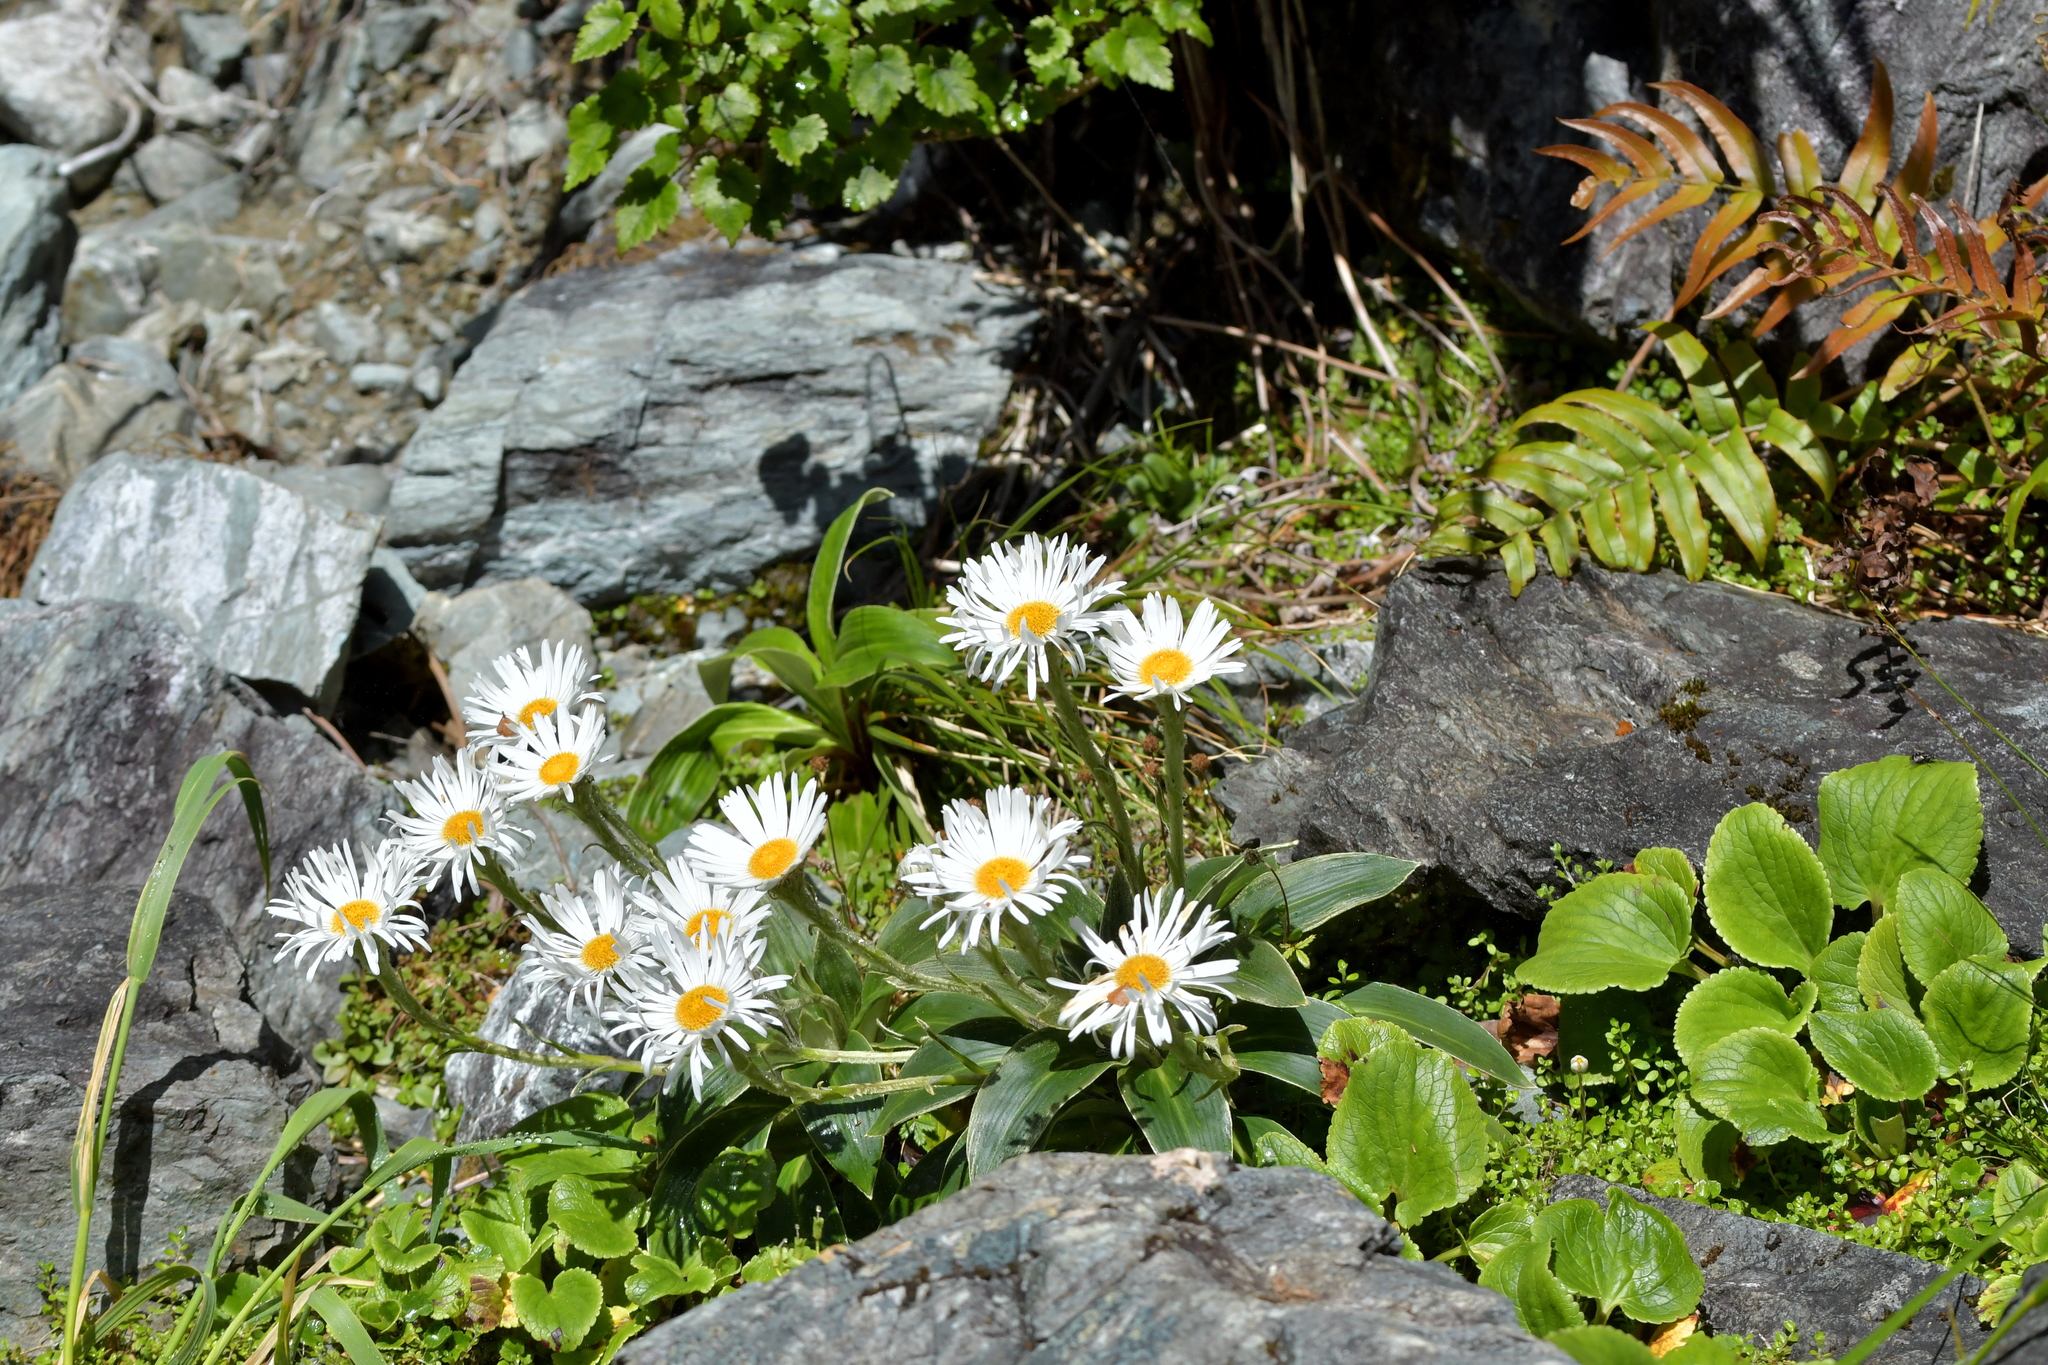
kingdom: Plantae
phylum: Tracheophyta
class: Magnoliopsida
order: Asterales
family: Asteraceae
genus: Celmisia
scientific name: Celmisia semicordata
